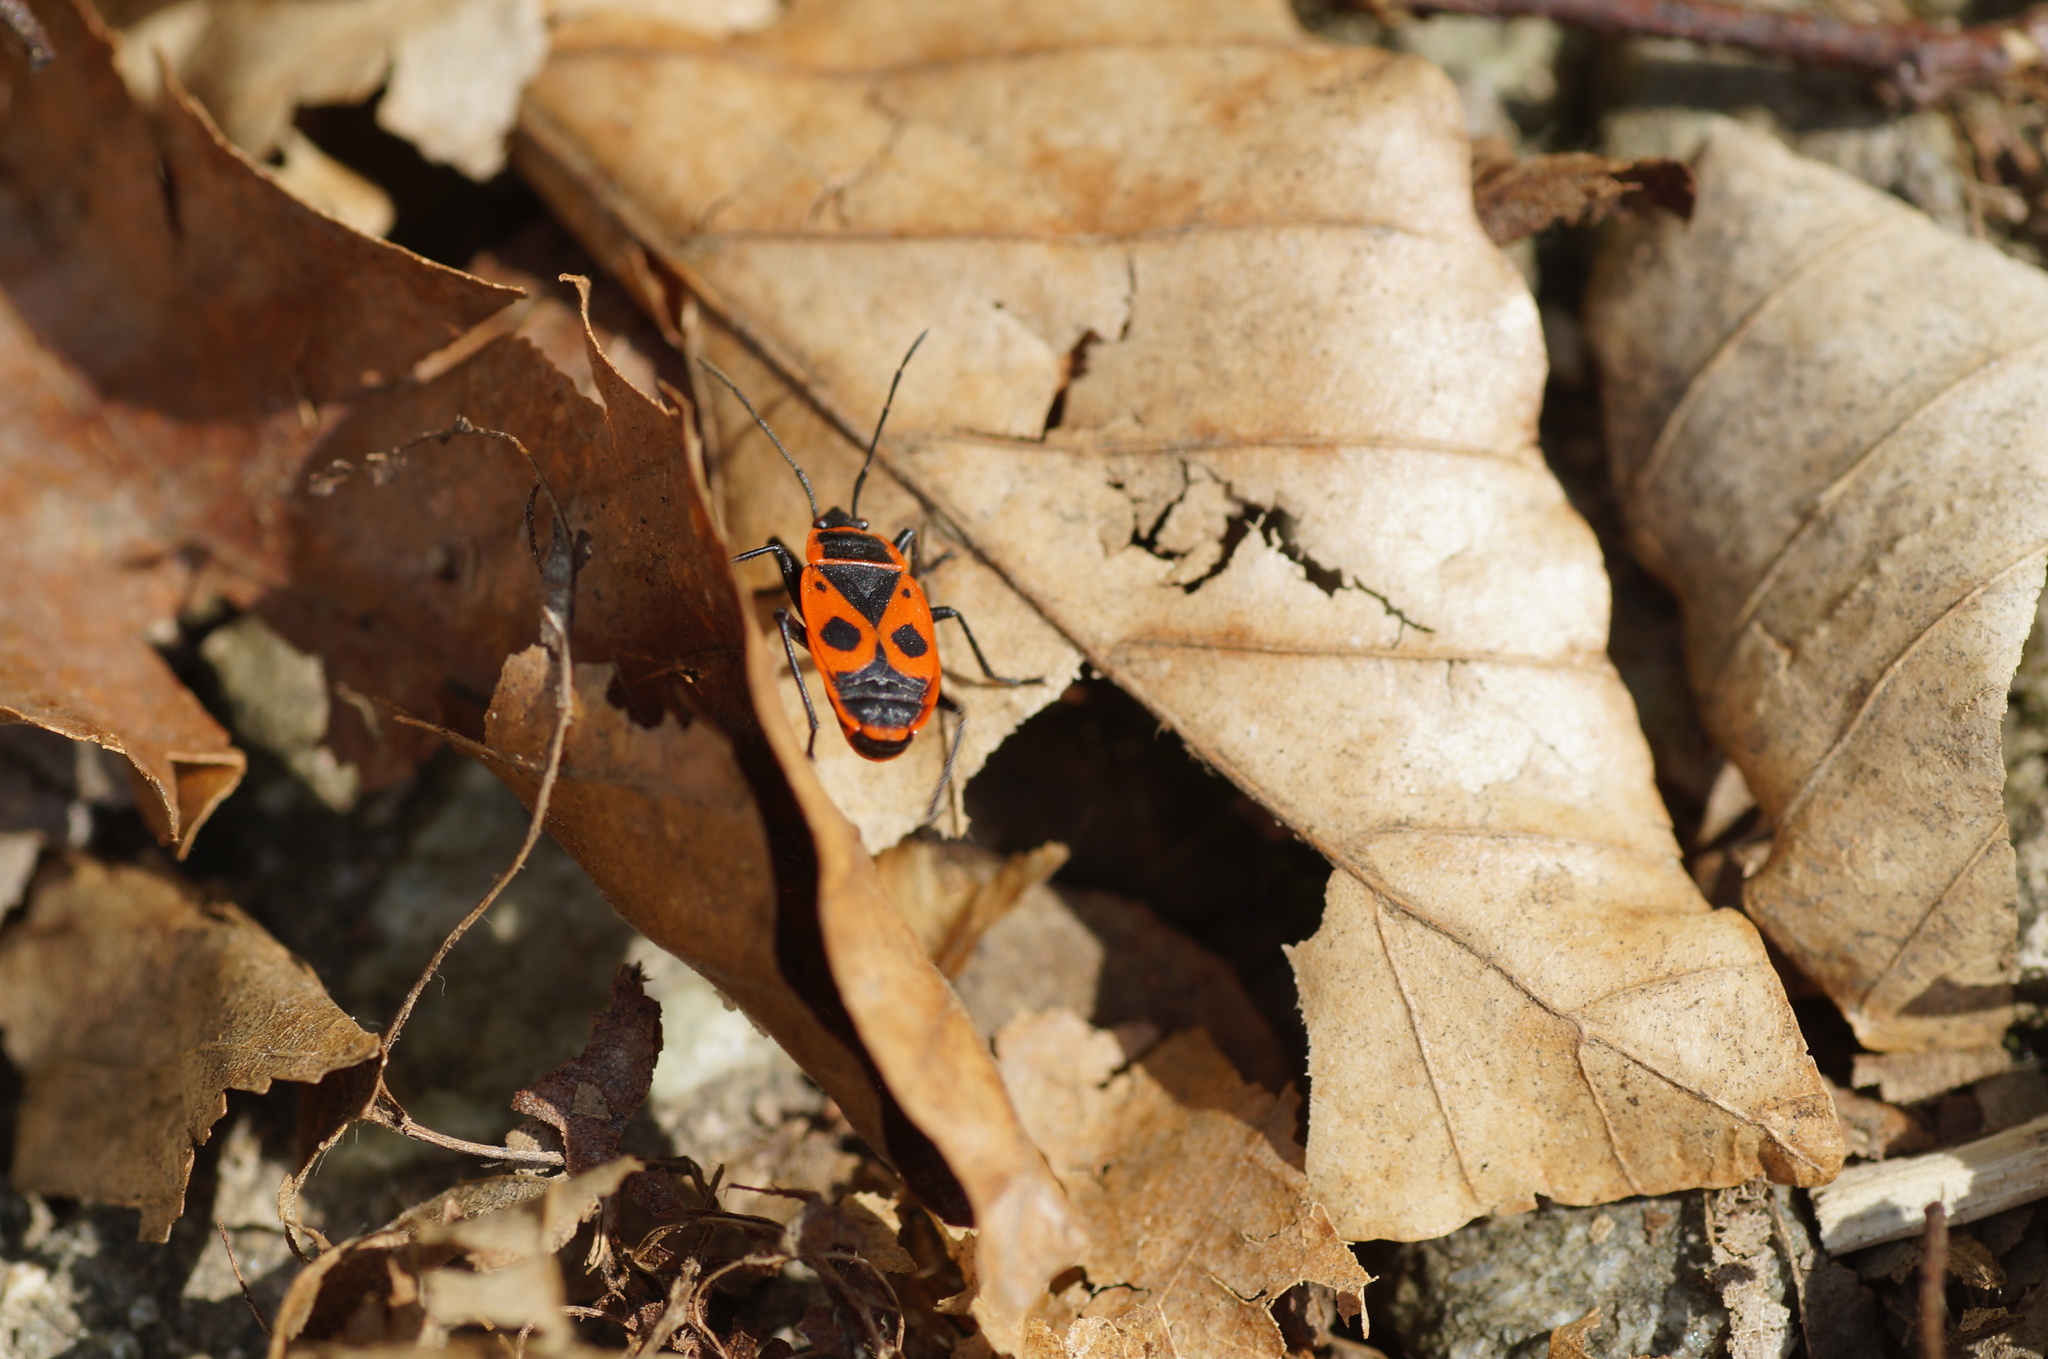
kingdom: Animalia
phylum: Arthropoda
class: Insecta
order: Hemiptera
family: Pyrrhocoridae
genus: Pyrrhocoris
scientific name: Pyrrhocoris apterus
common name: Firebug
